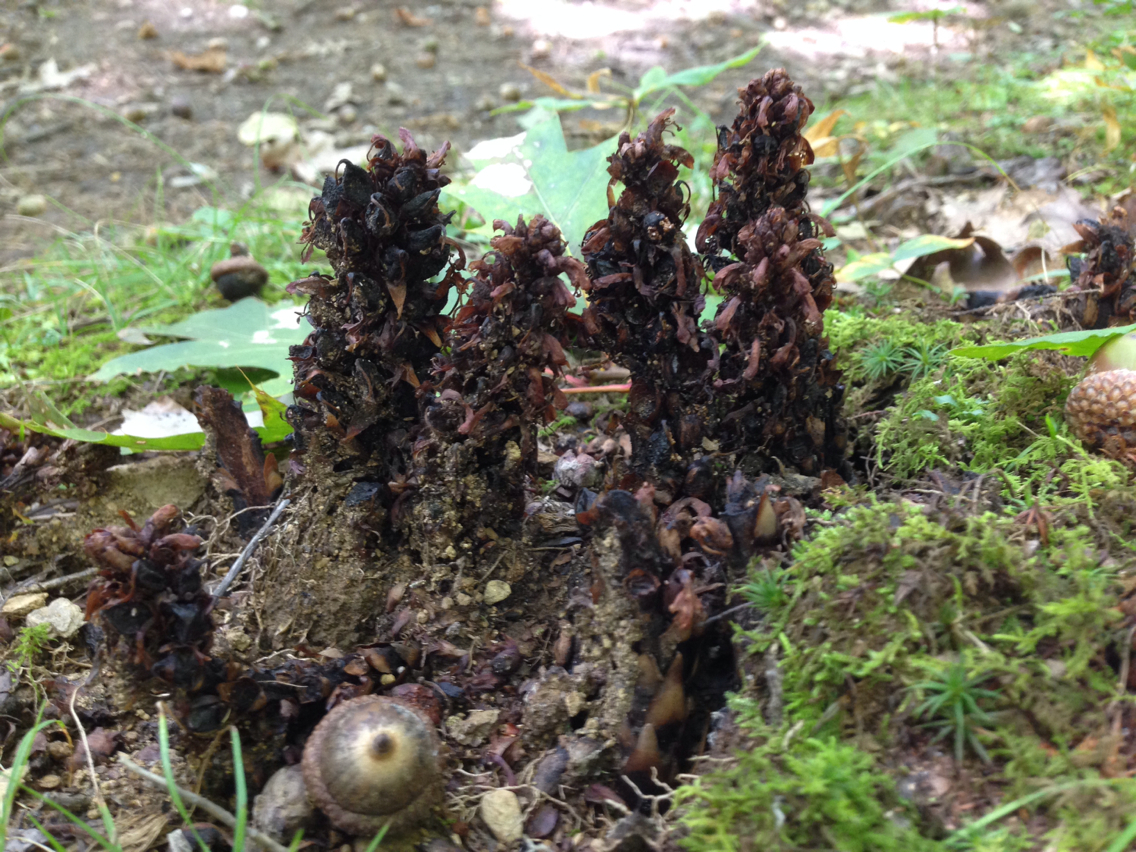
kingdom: Plantae
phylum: Tracheophyta
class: Magnoliopsida
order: Lamiales
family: Orobanchaceae
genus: Conopholis
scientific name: Conopholis americana
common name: American cancer-root
